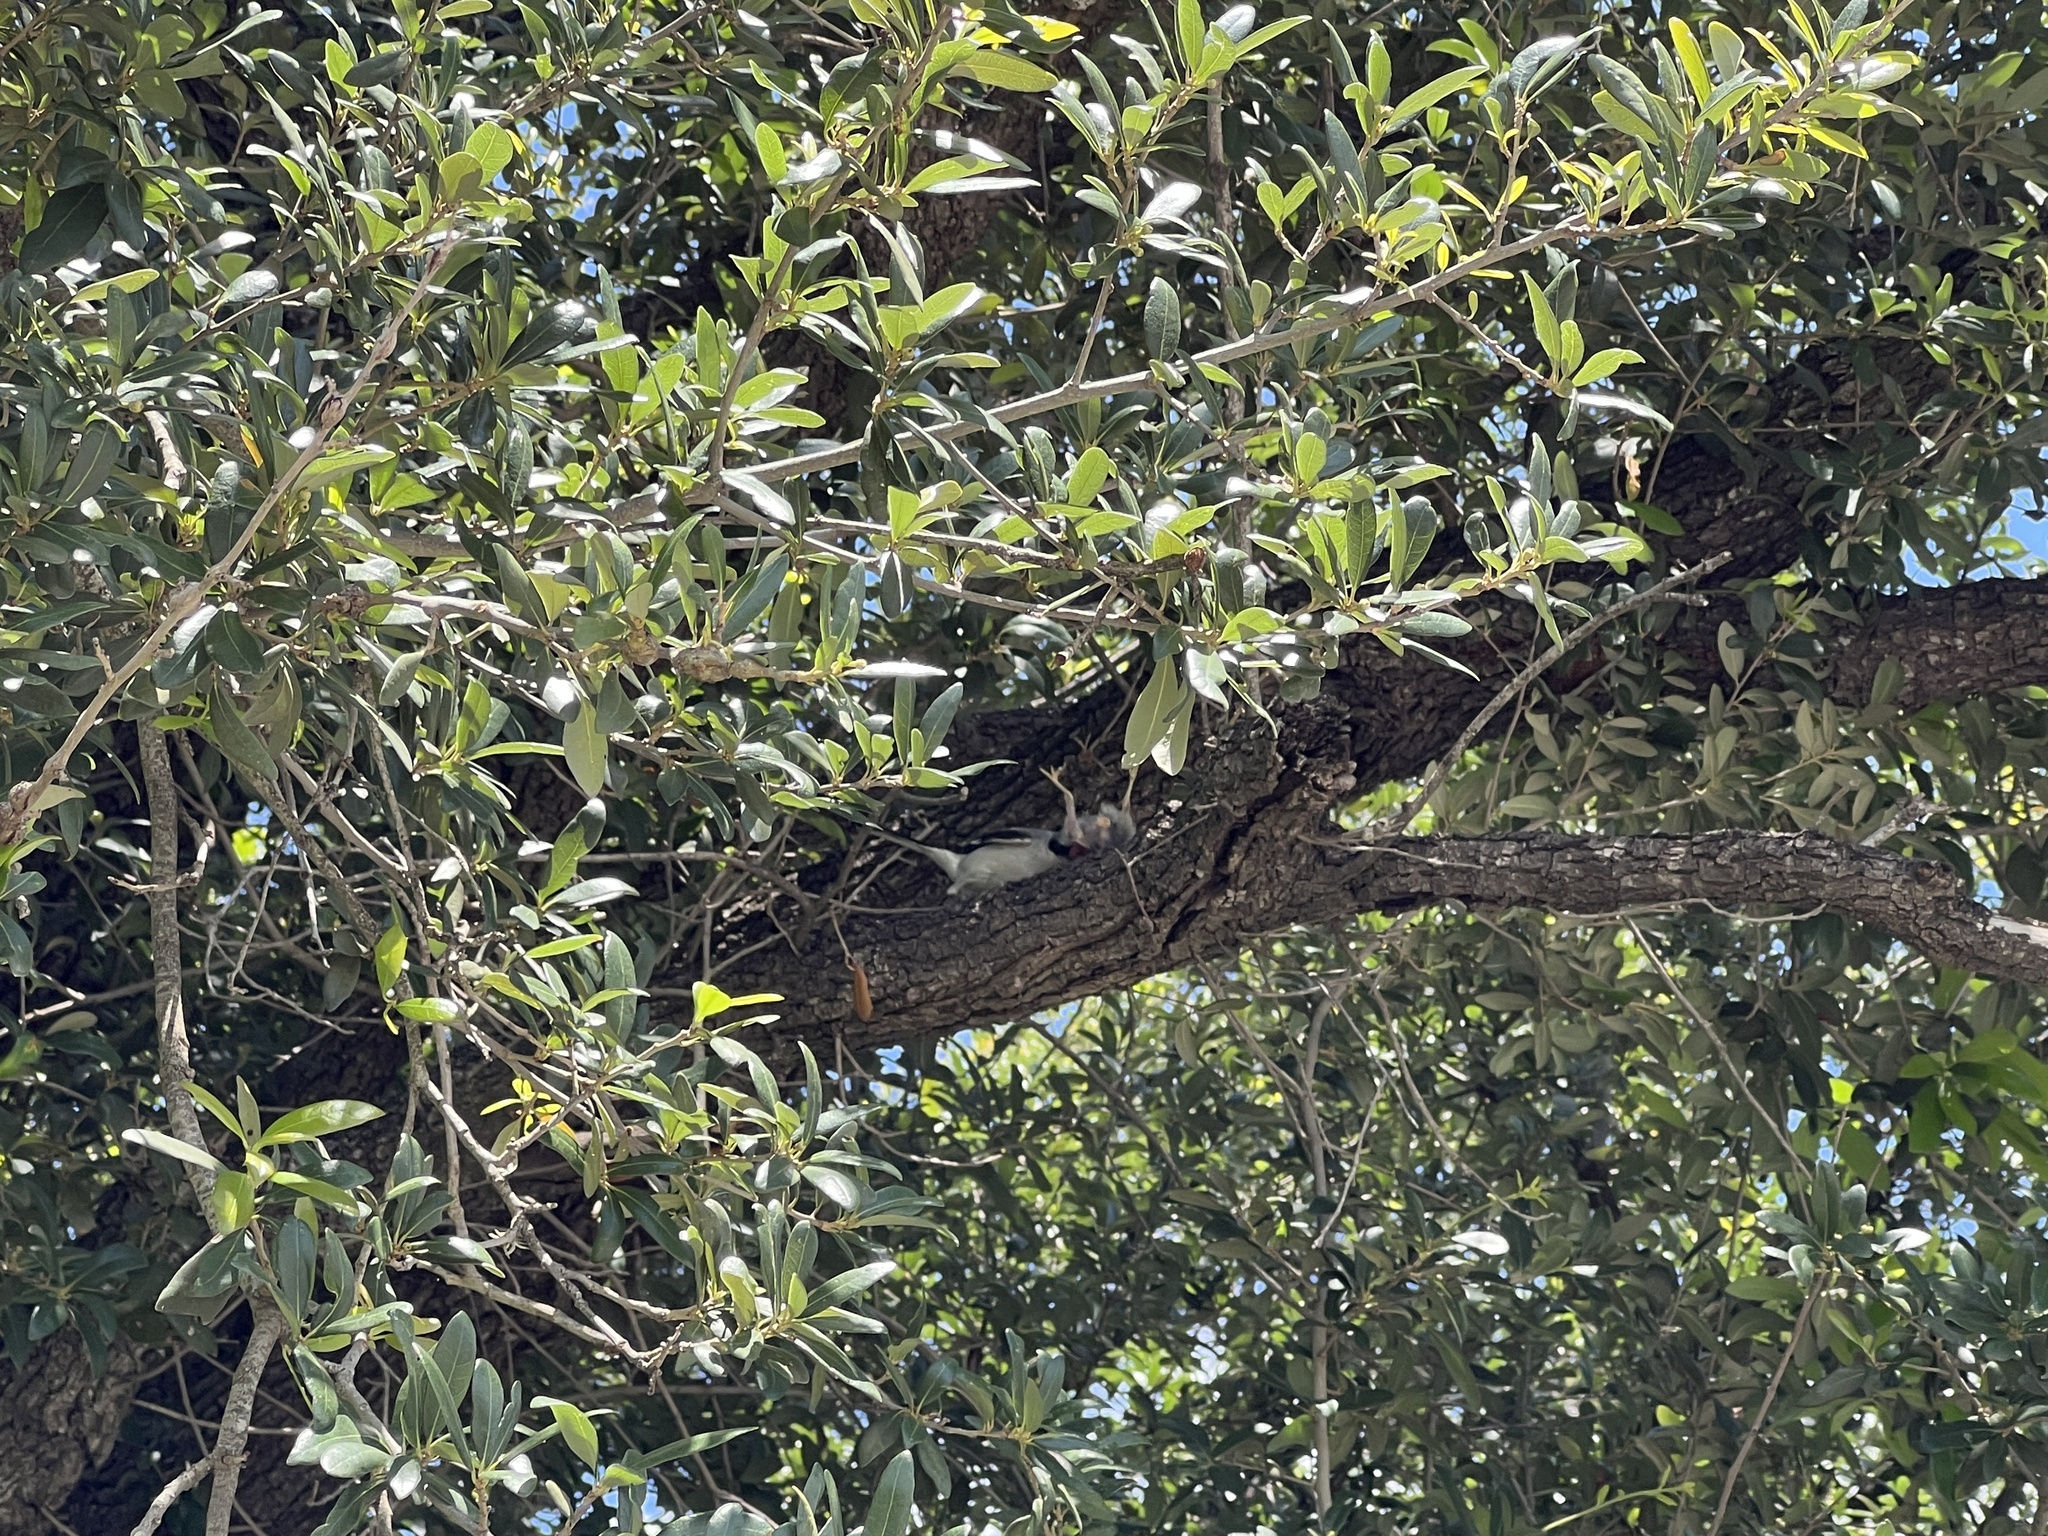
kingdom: Animalia
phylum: Chordata
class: Aves
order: Passeriformes
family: Laniidae
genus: Lanius
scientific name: Lanius ludovicianus
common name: Loggerhead shrike
